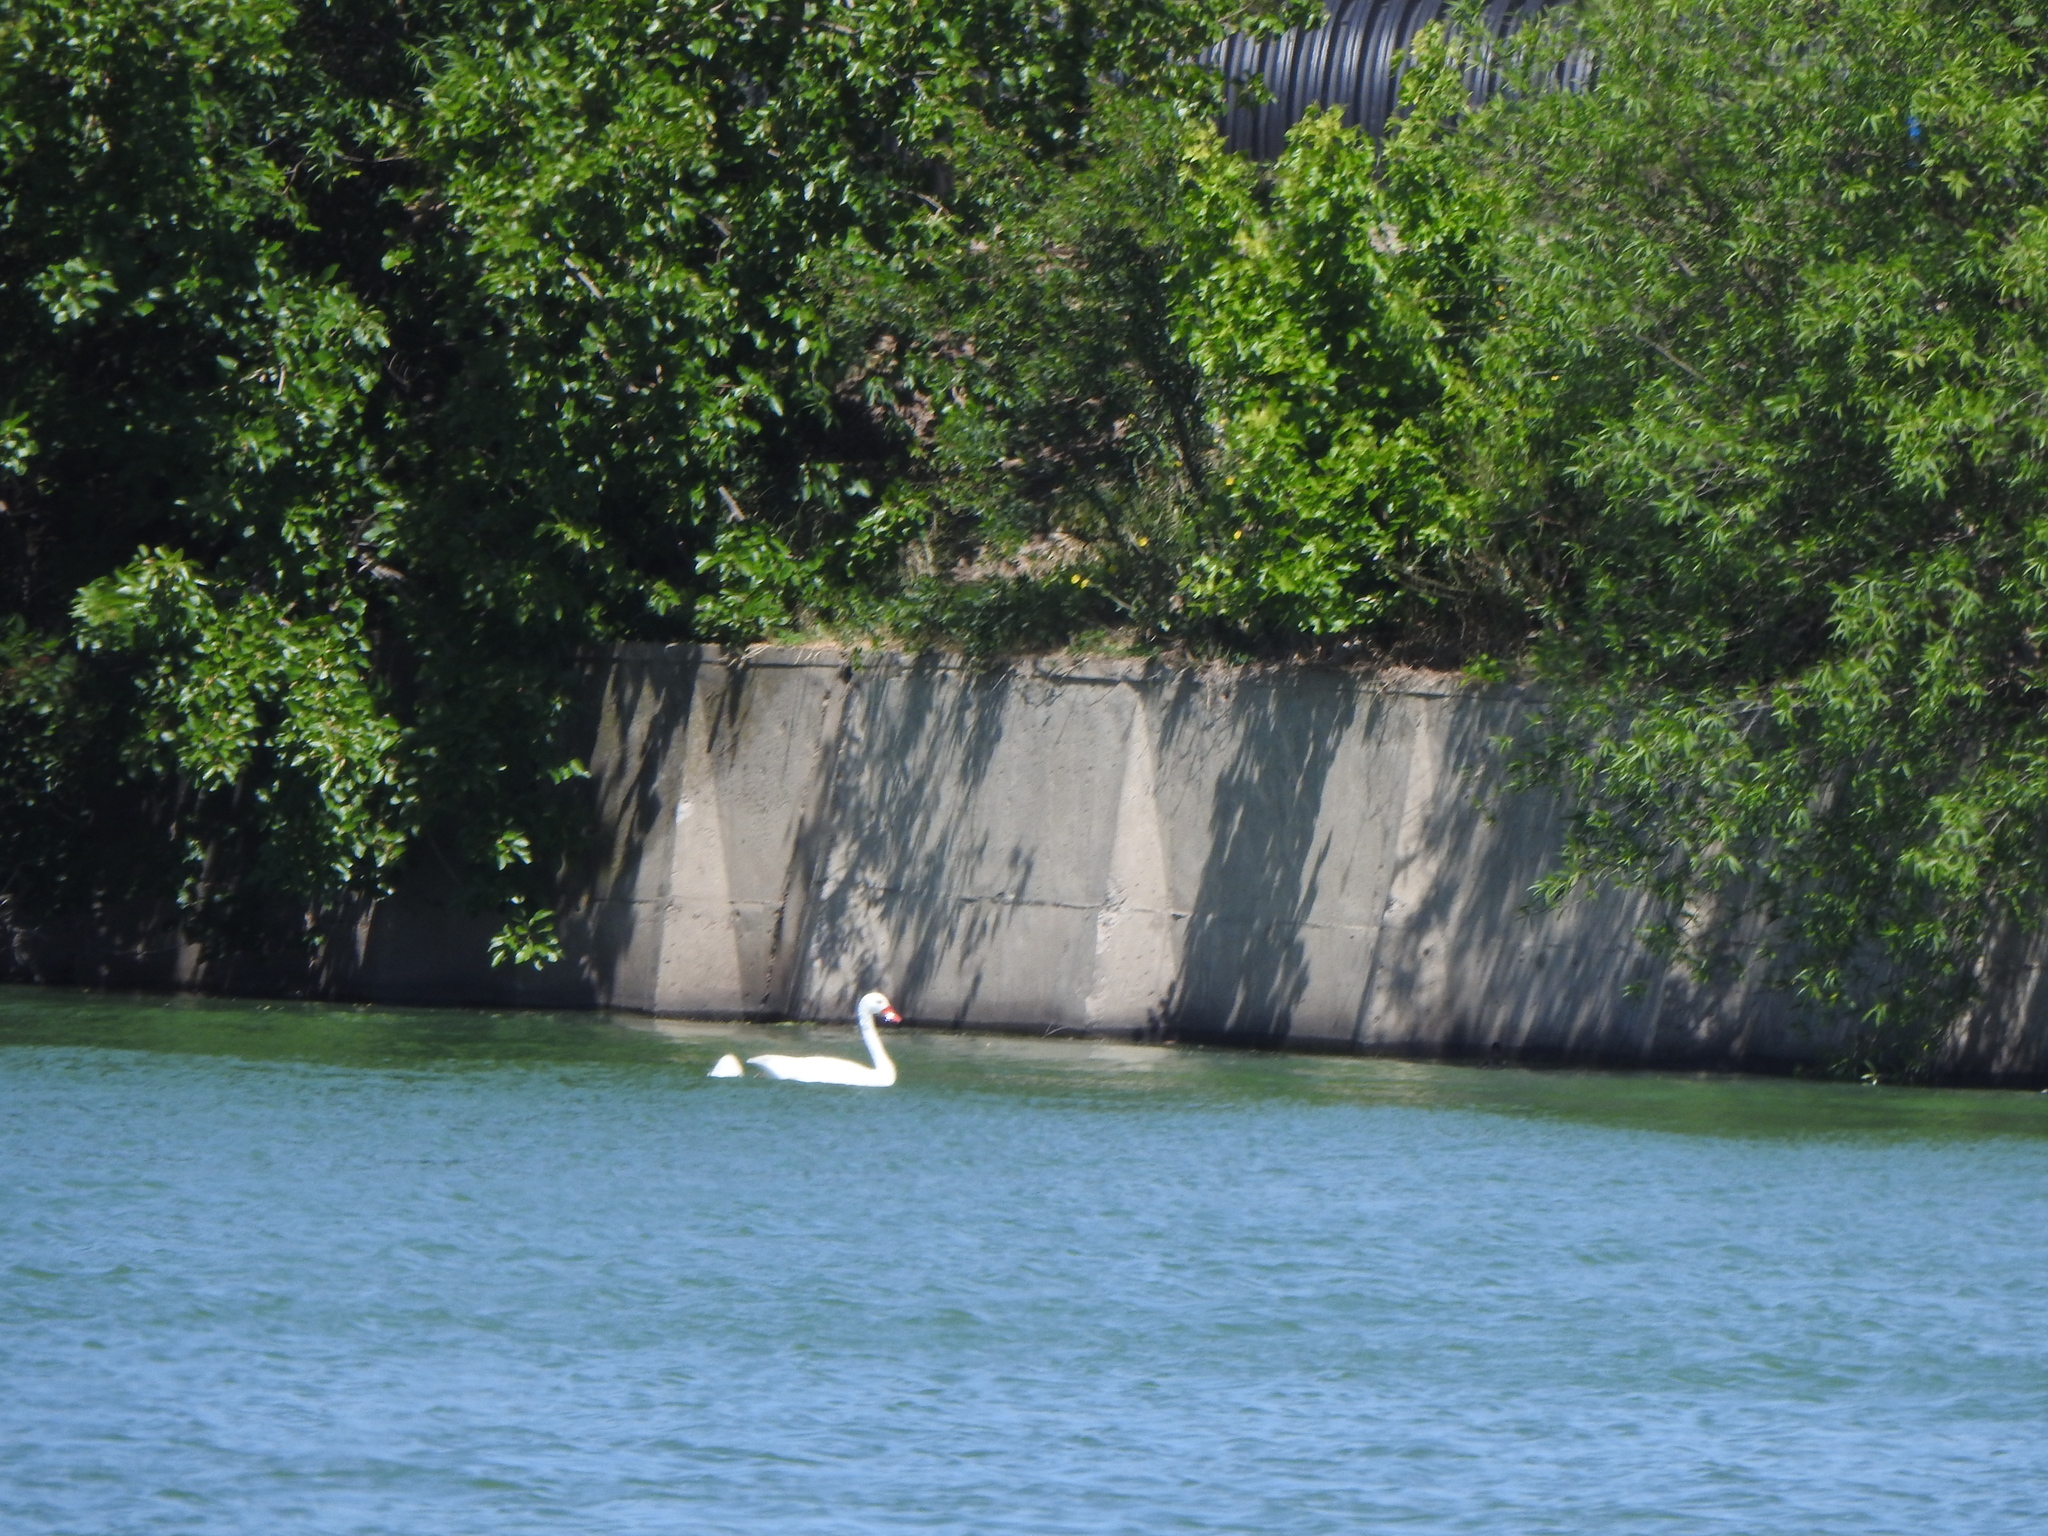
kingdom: Animalia
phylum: Chordata
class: Aves
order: Anseriformes
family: Anatidae
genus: Coscoroba
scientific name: Coscoroba coscoroba
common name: Coscoroba swan
